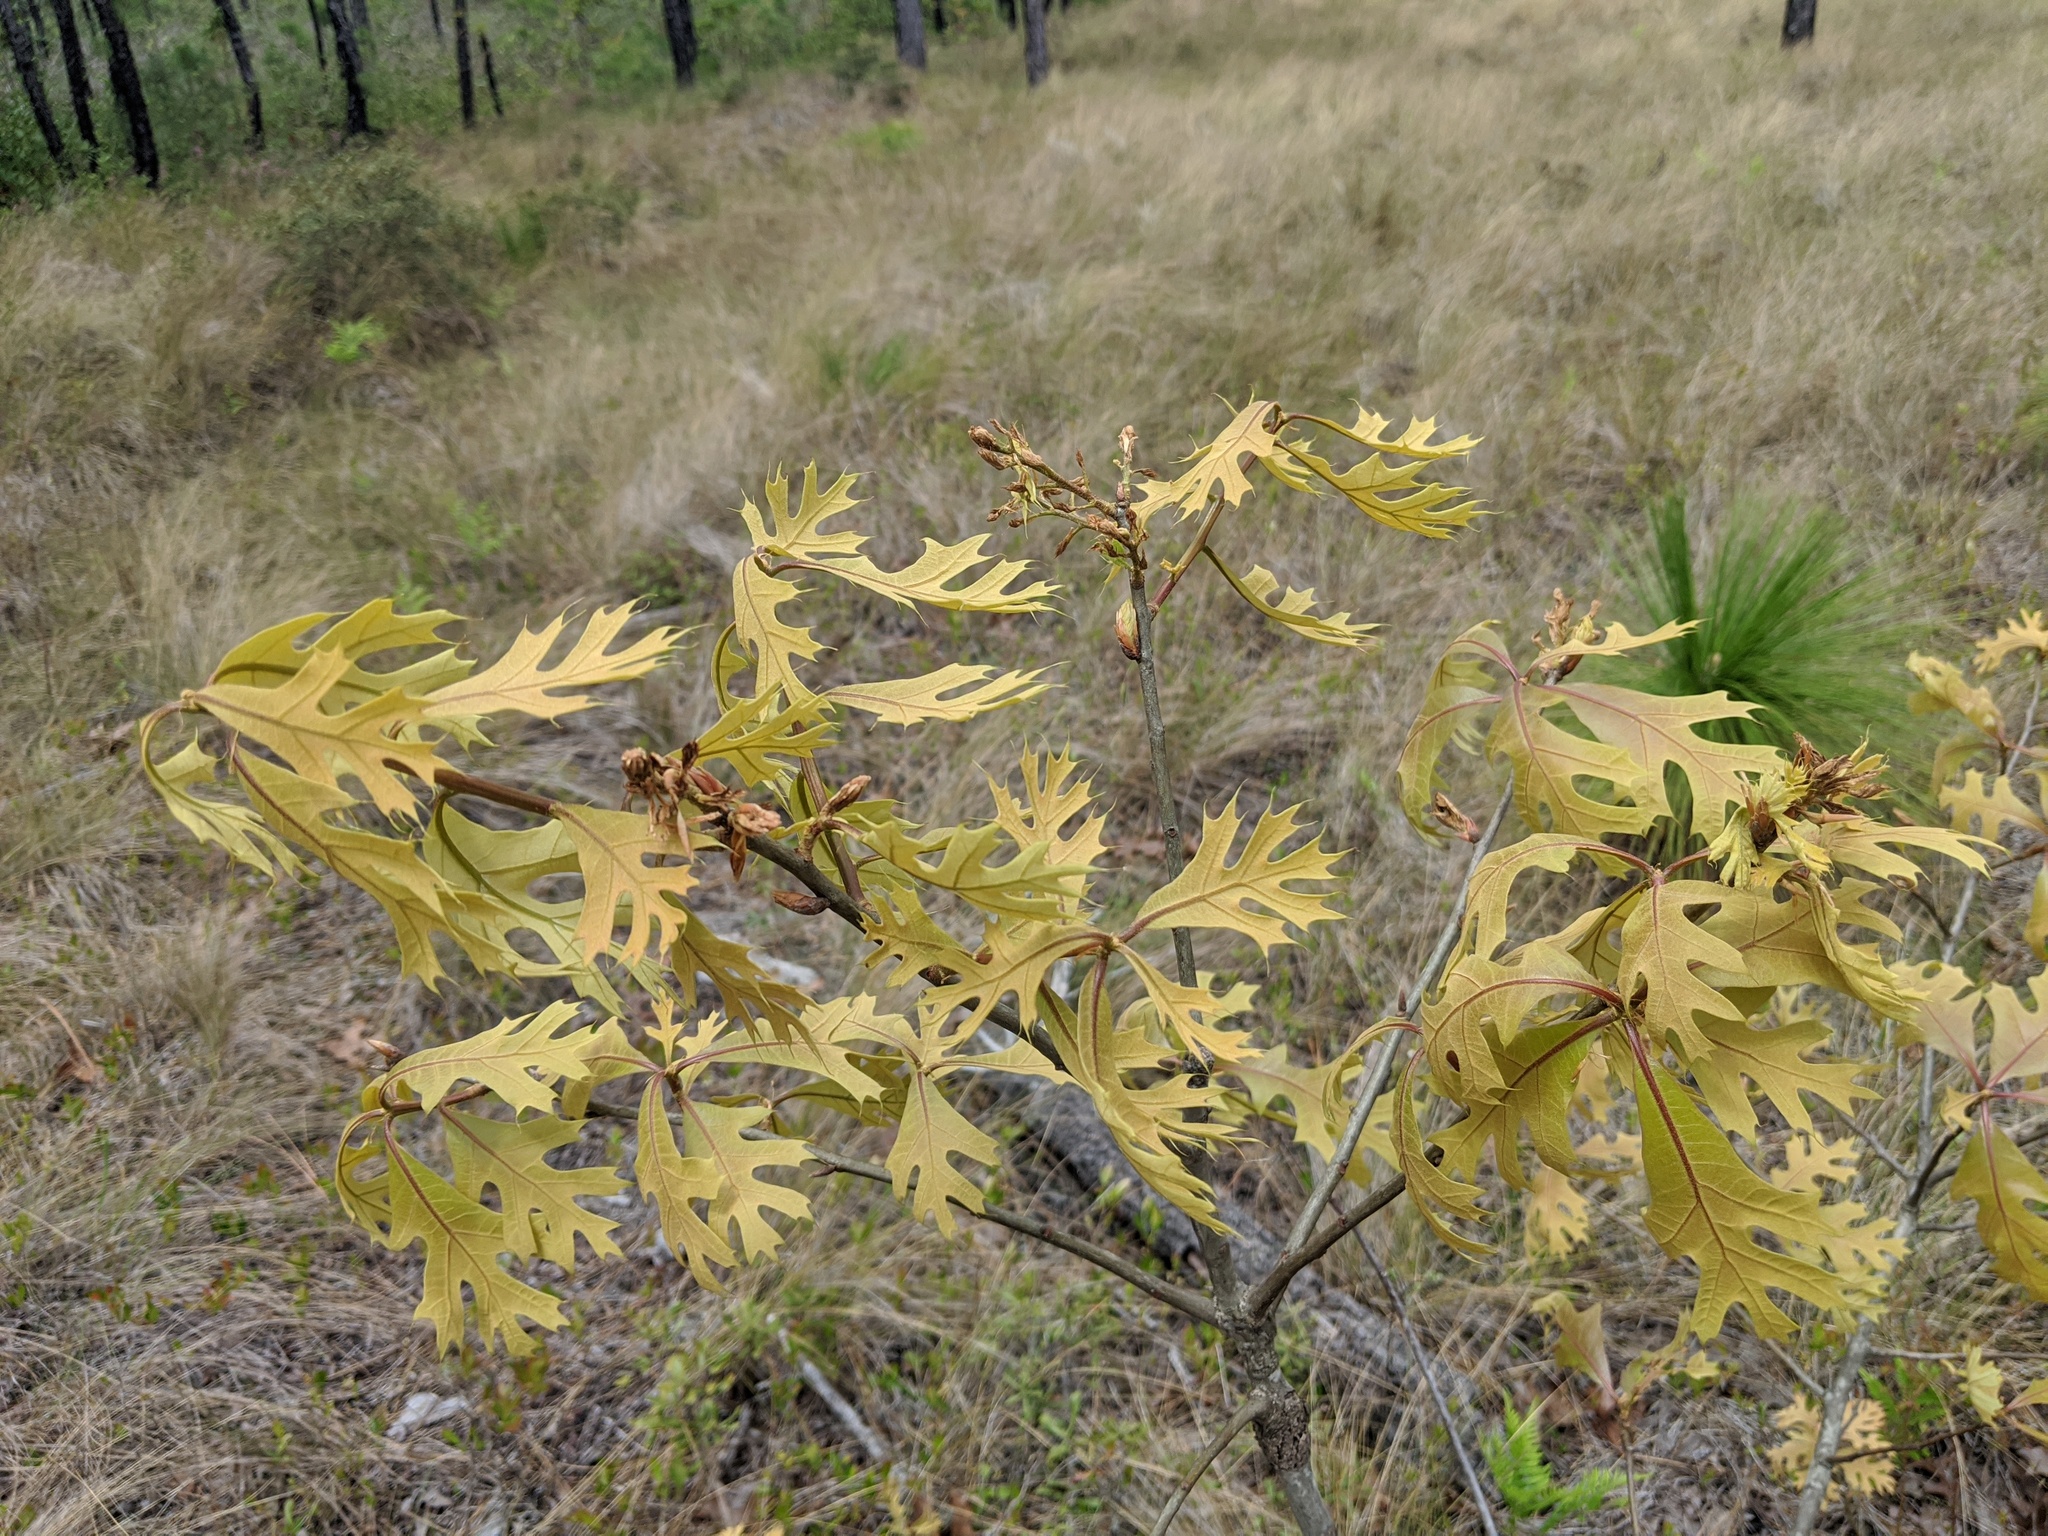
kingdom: Plantae
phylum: Tracheophyta
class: Magnoliopsida
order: Fagales
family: Fagaceae
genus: Quercus
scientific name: Quercus laevis
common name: Turkey oak
